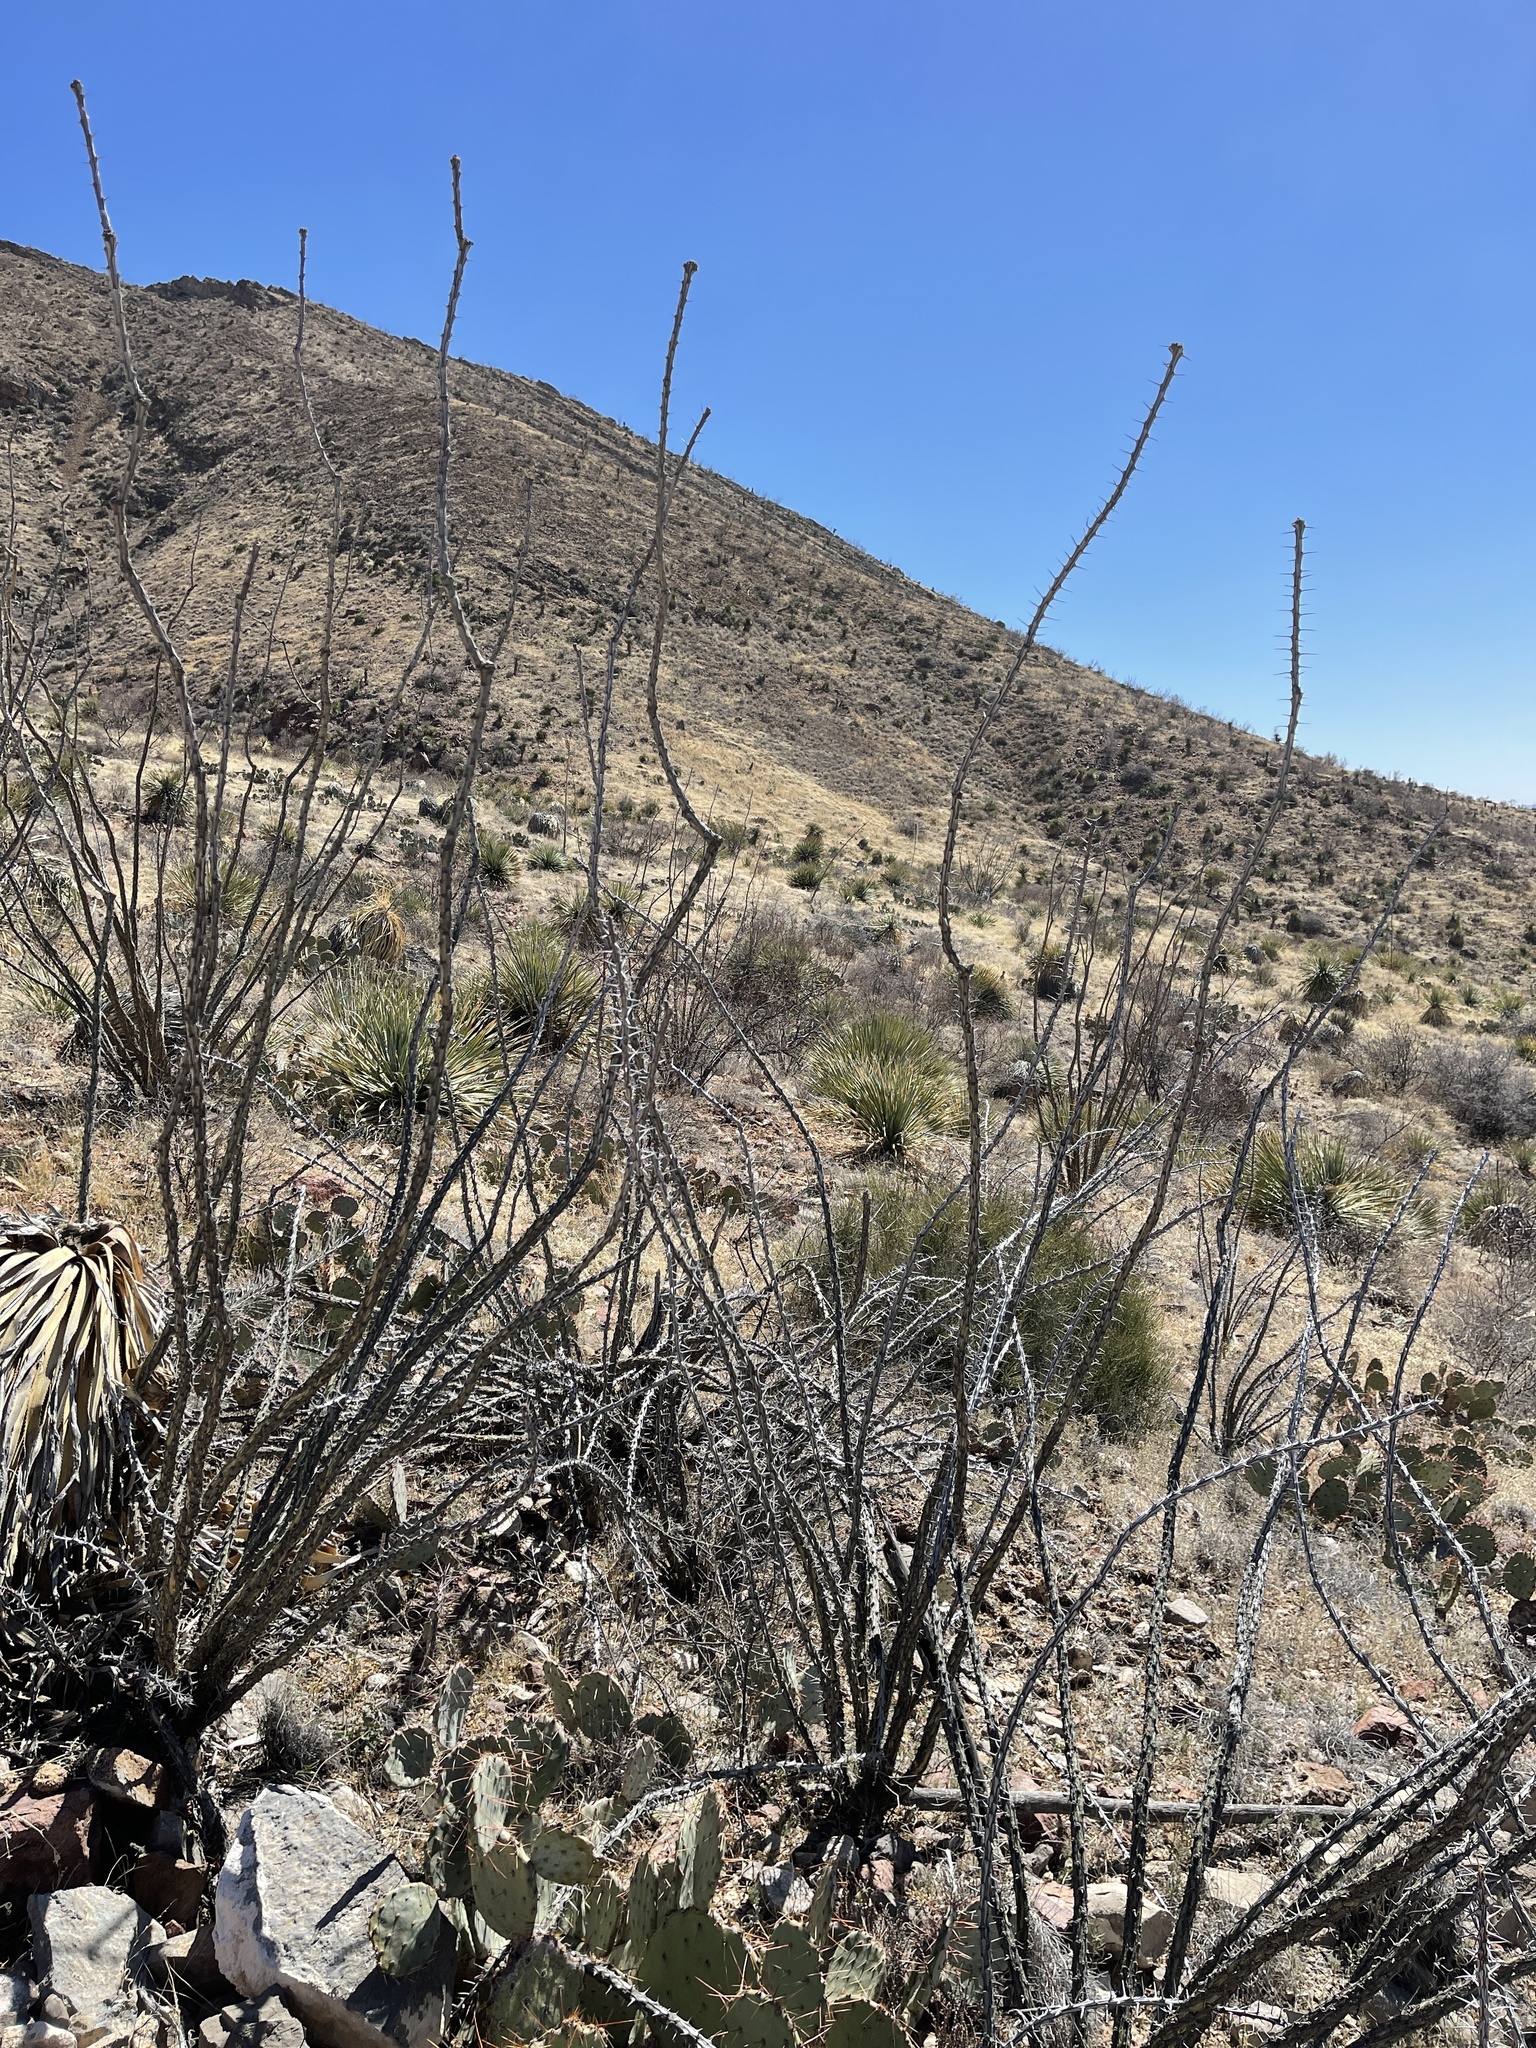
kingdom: Plantae
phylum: Tracheophyta
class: Magnoliopsida
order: Ericales
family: Fouquieriaceae
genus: Fouquieria
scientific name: Fouquieria splendens
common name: Vine-cactus
